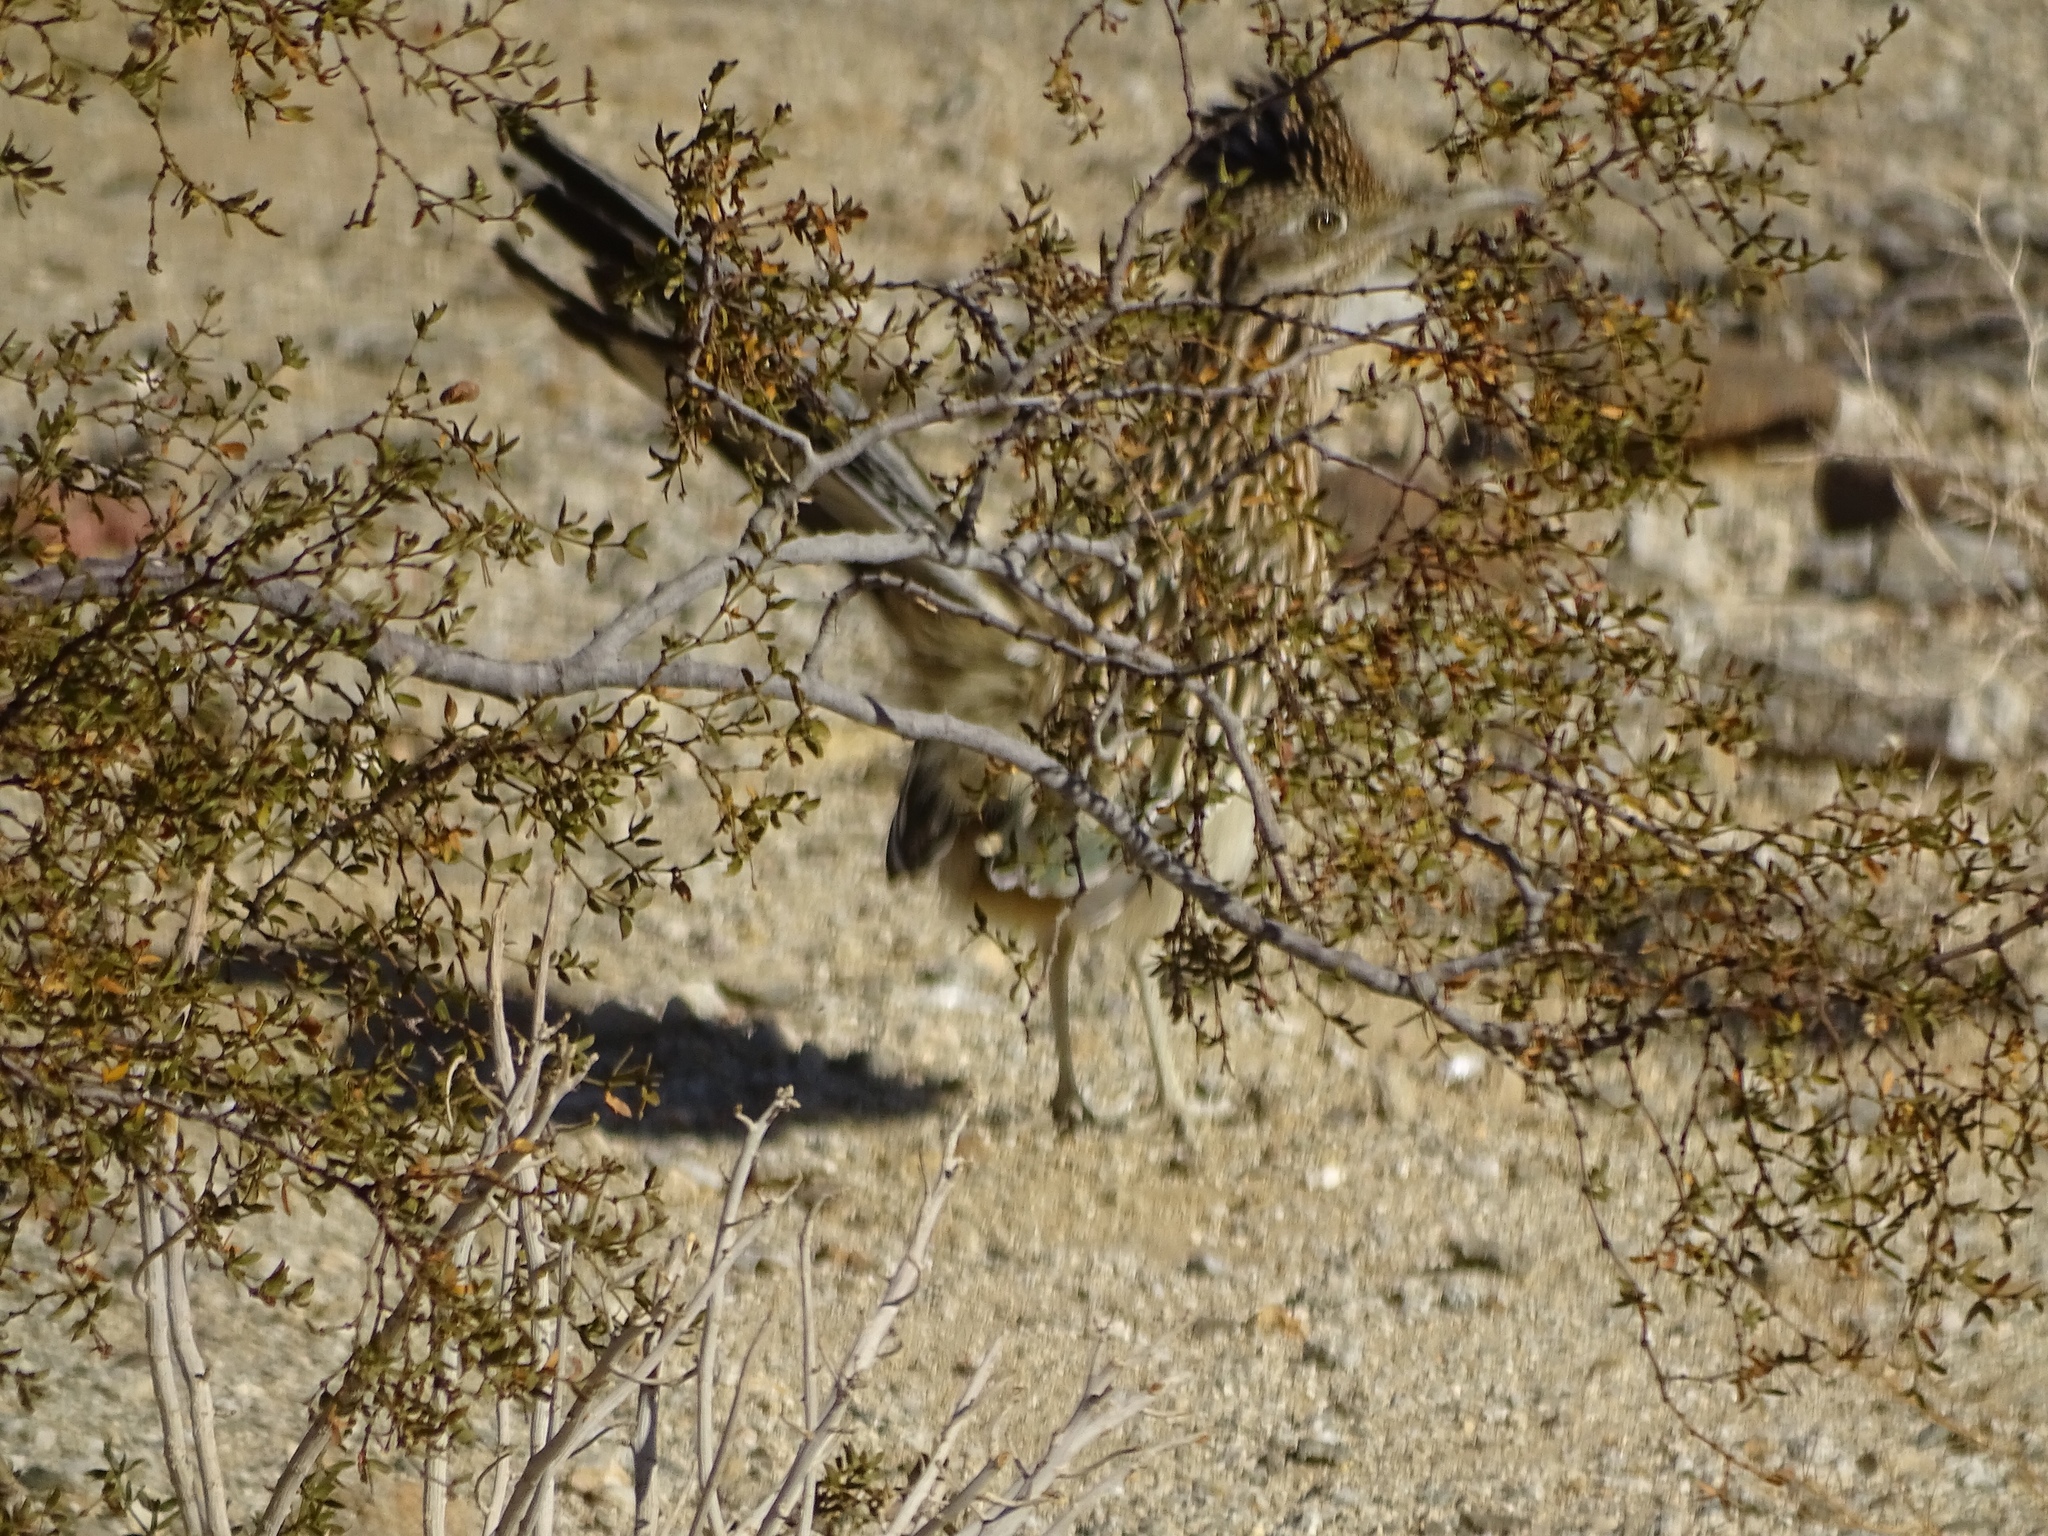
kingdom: Animalia
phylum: Chordata
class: Aves
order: Cuculiformes
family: Cuculidae
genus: Geococcyx
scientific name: Geococcyx californianus
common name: Greater roadrunner
